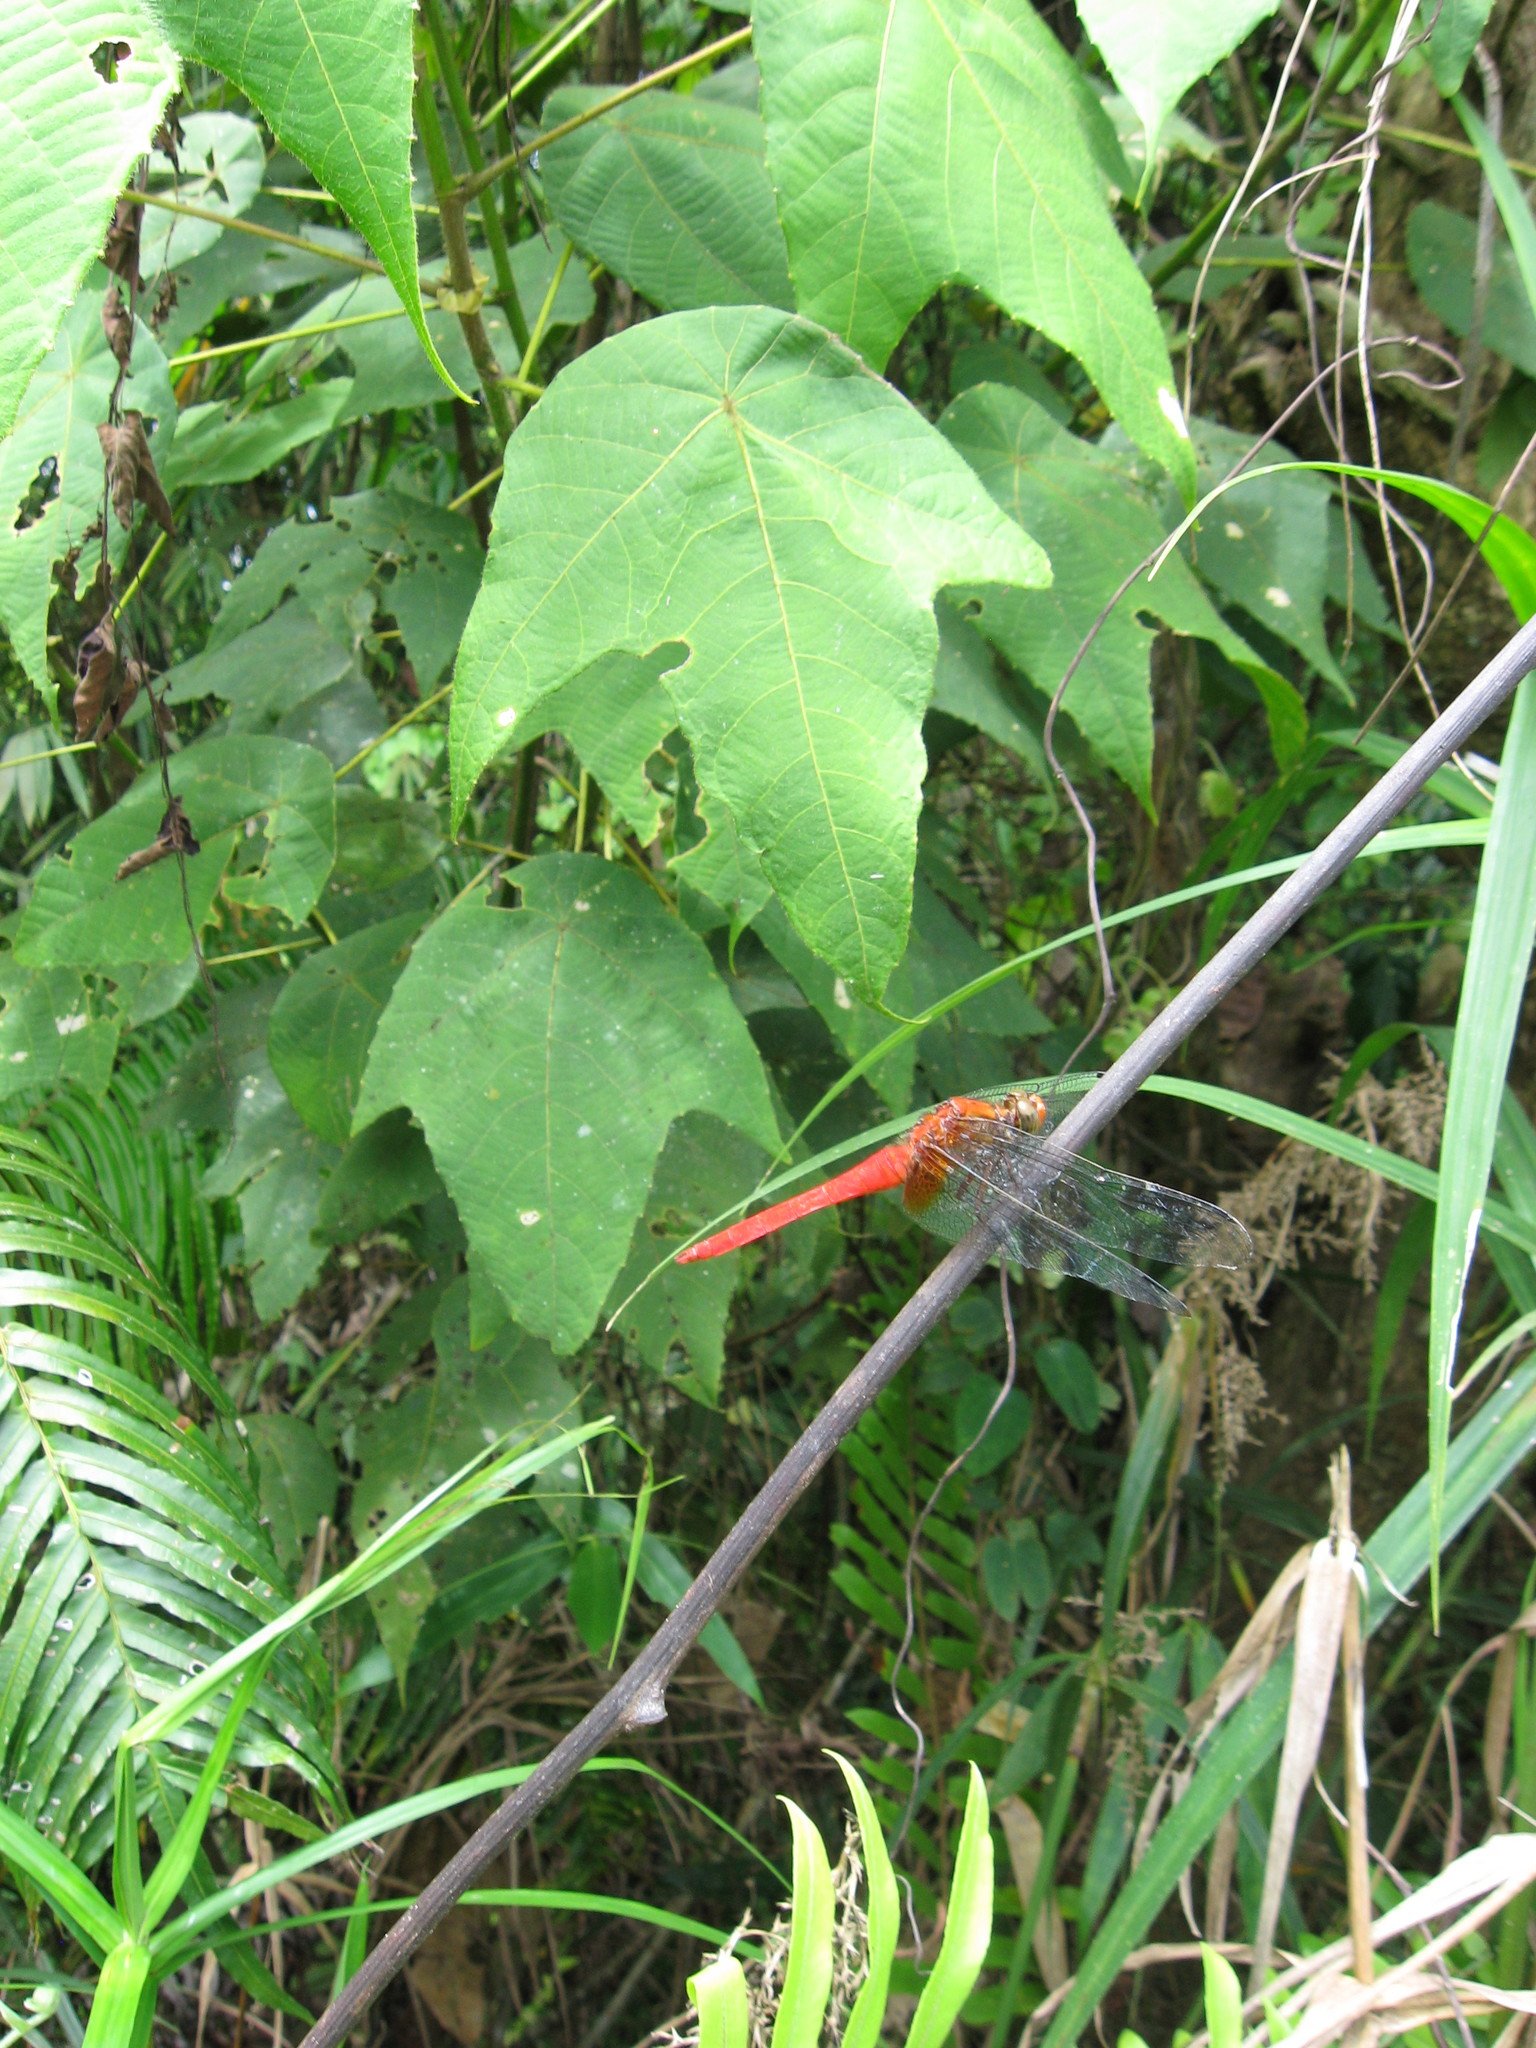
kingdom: Animalia
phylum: Arthropoda
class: Insecta
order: Odonata
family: Libellulidae
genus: Orthetrum
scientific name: Orthetrum testaceum
